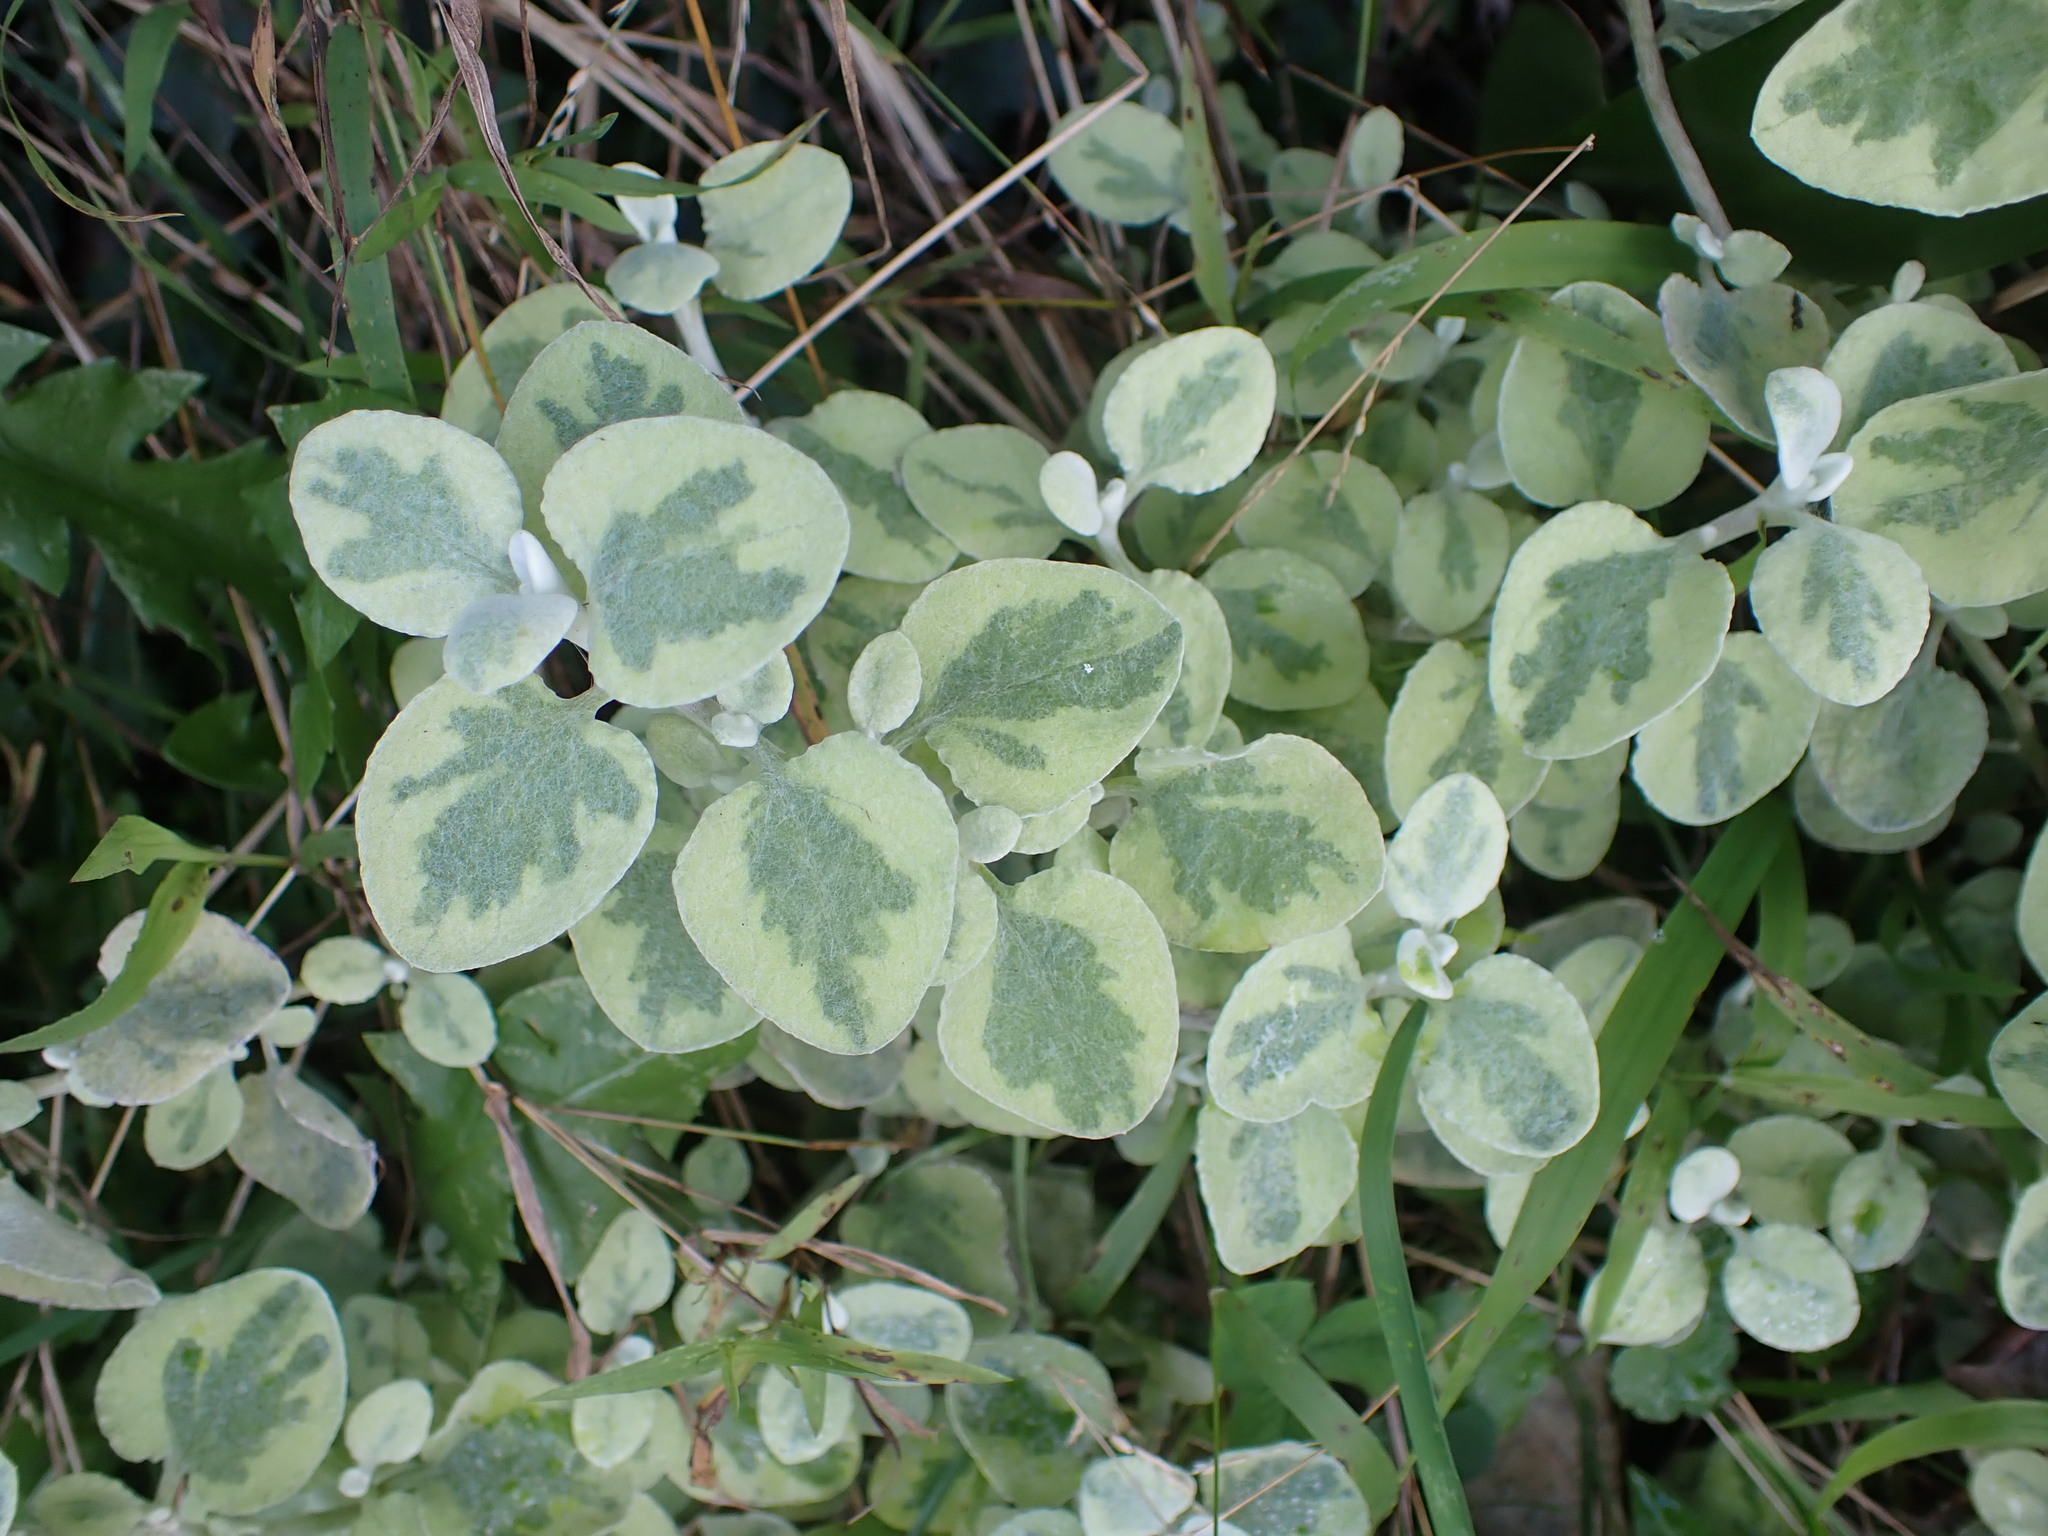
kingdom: Plantae
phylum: Tracheophyta
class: Magnoliopsida
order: Asterales
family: Asteraceae
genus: Helichrysum
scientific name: Helichrysum petiolare
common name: Licorice-plant
